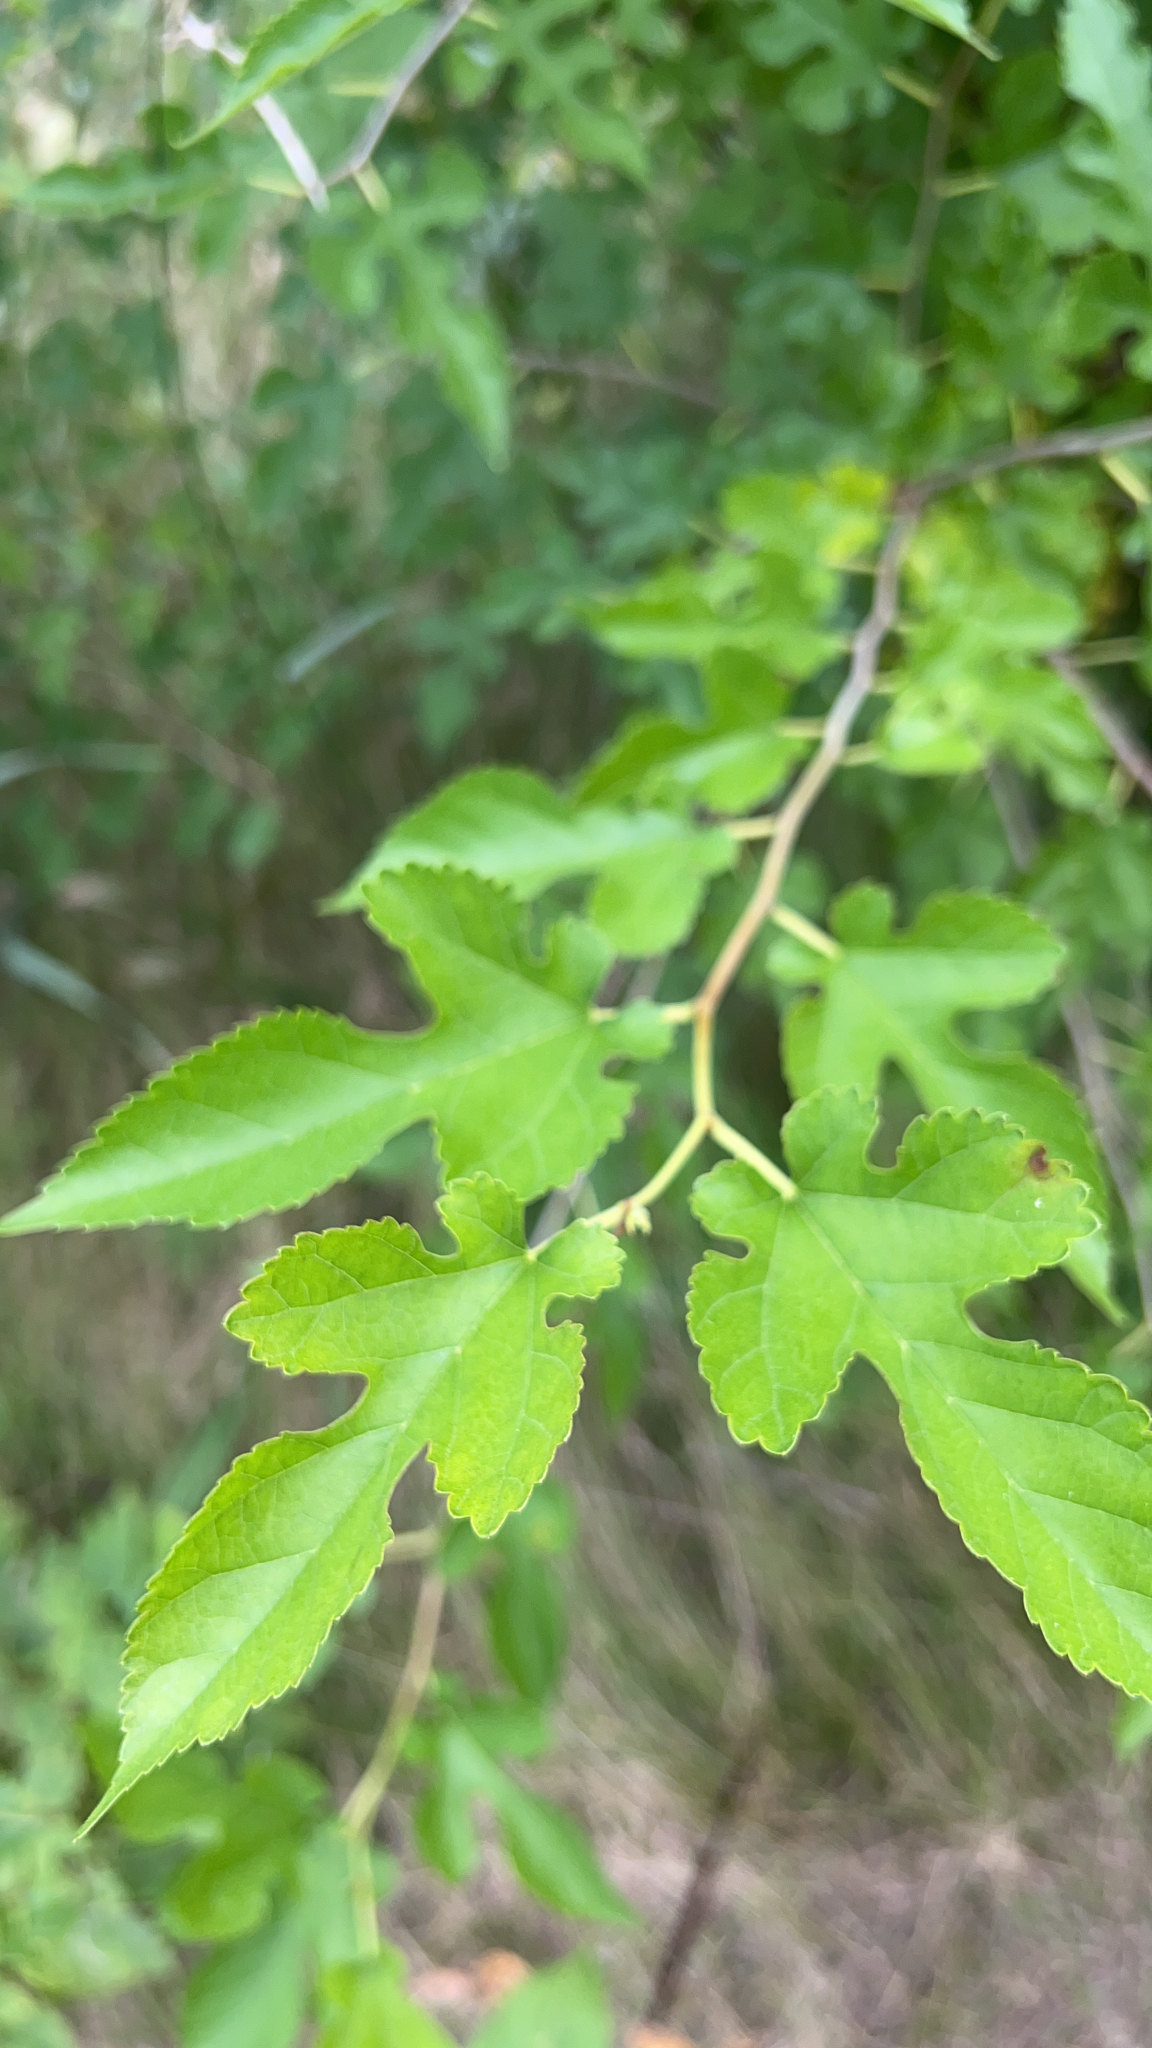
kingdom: Plantae
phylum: Tracheophyta
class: Magnoliopsida
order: Rosales
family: Moraceae
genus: Morus
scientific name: Morus alba
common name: White mulberry
